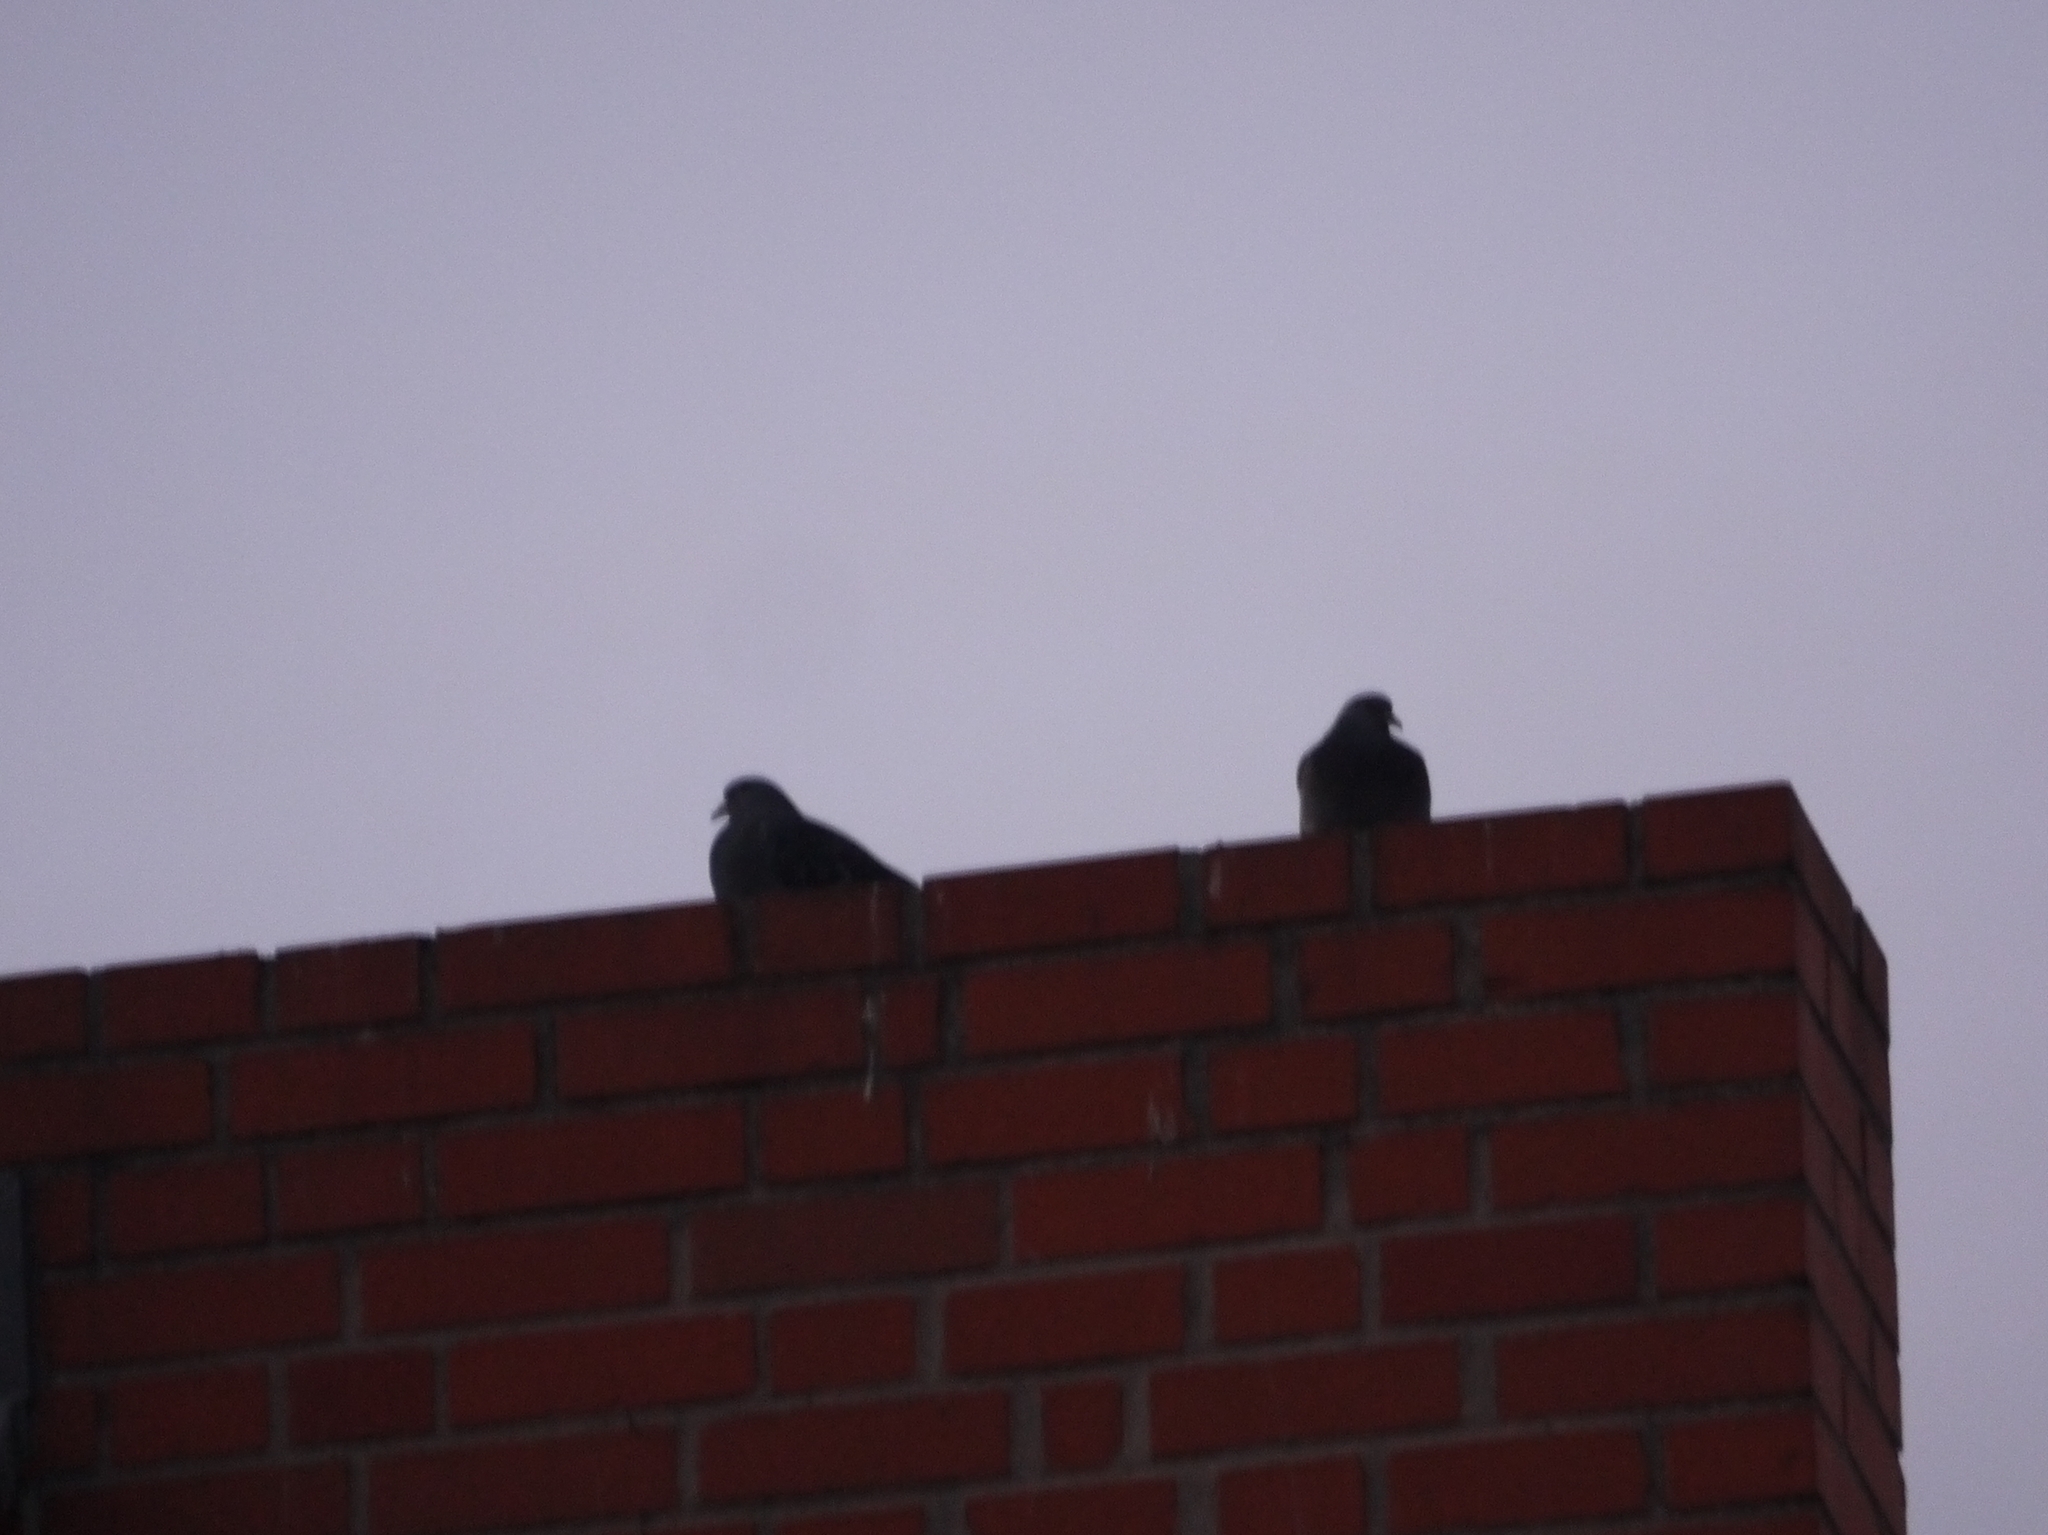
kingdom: Animalia
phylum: Chordata
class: Aves
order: Columbiformes
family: Columbidae
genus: Columba
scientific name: Columba livia
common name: Rock pigeon
